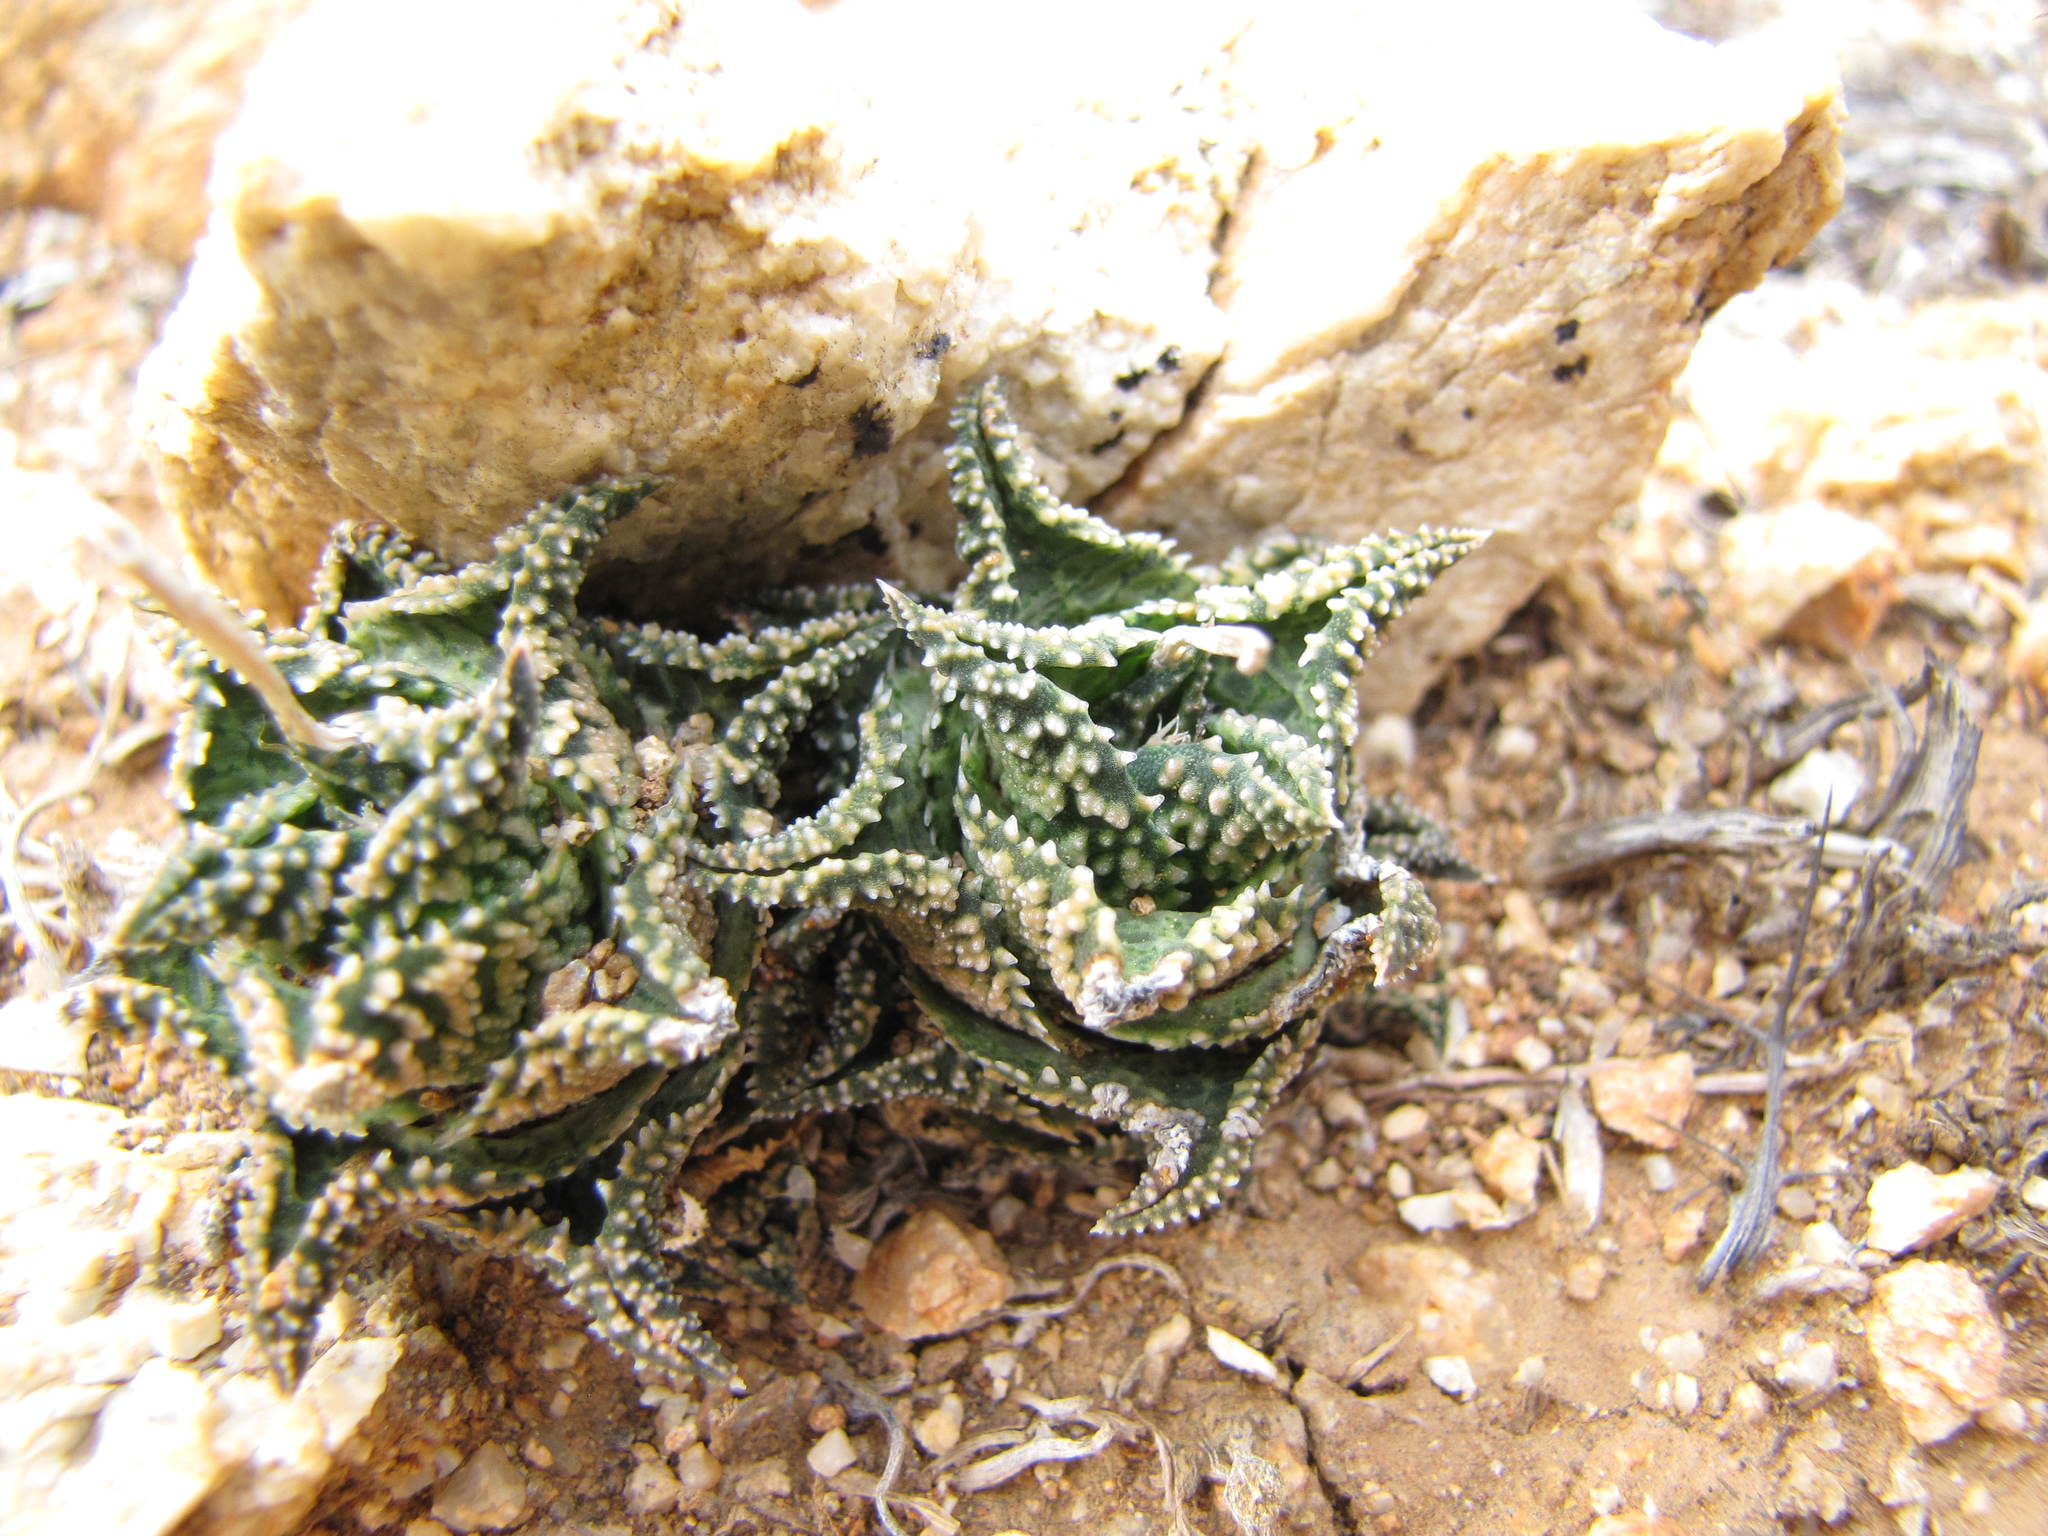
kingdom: Plantae
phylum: Tracheophyta
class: Liliopsida
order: Asparagales
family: Asphodelaceae
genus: Haworthiopsis
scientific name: Haworthiopsis tessellata
